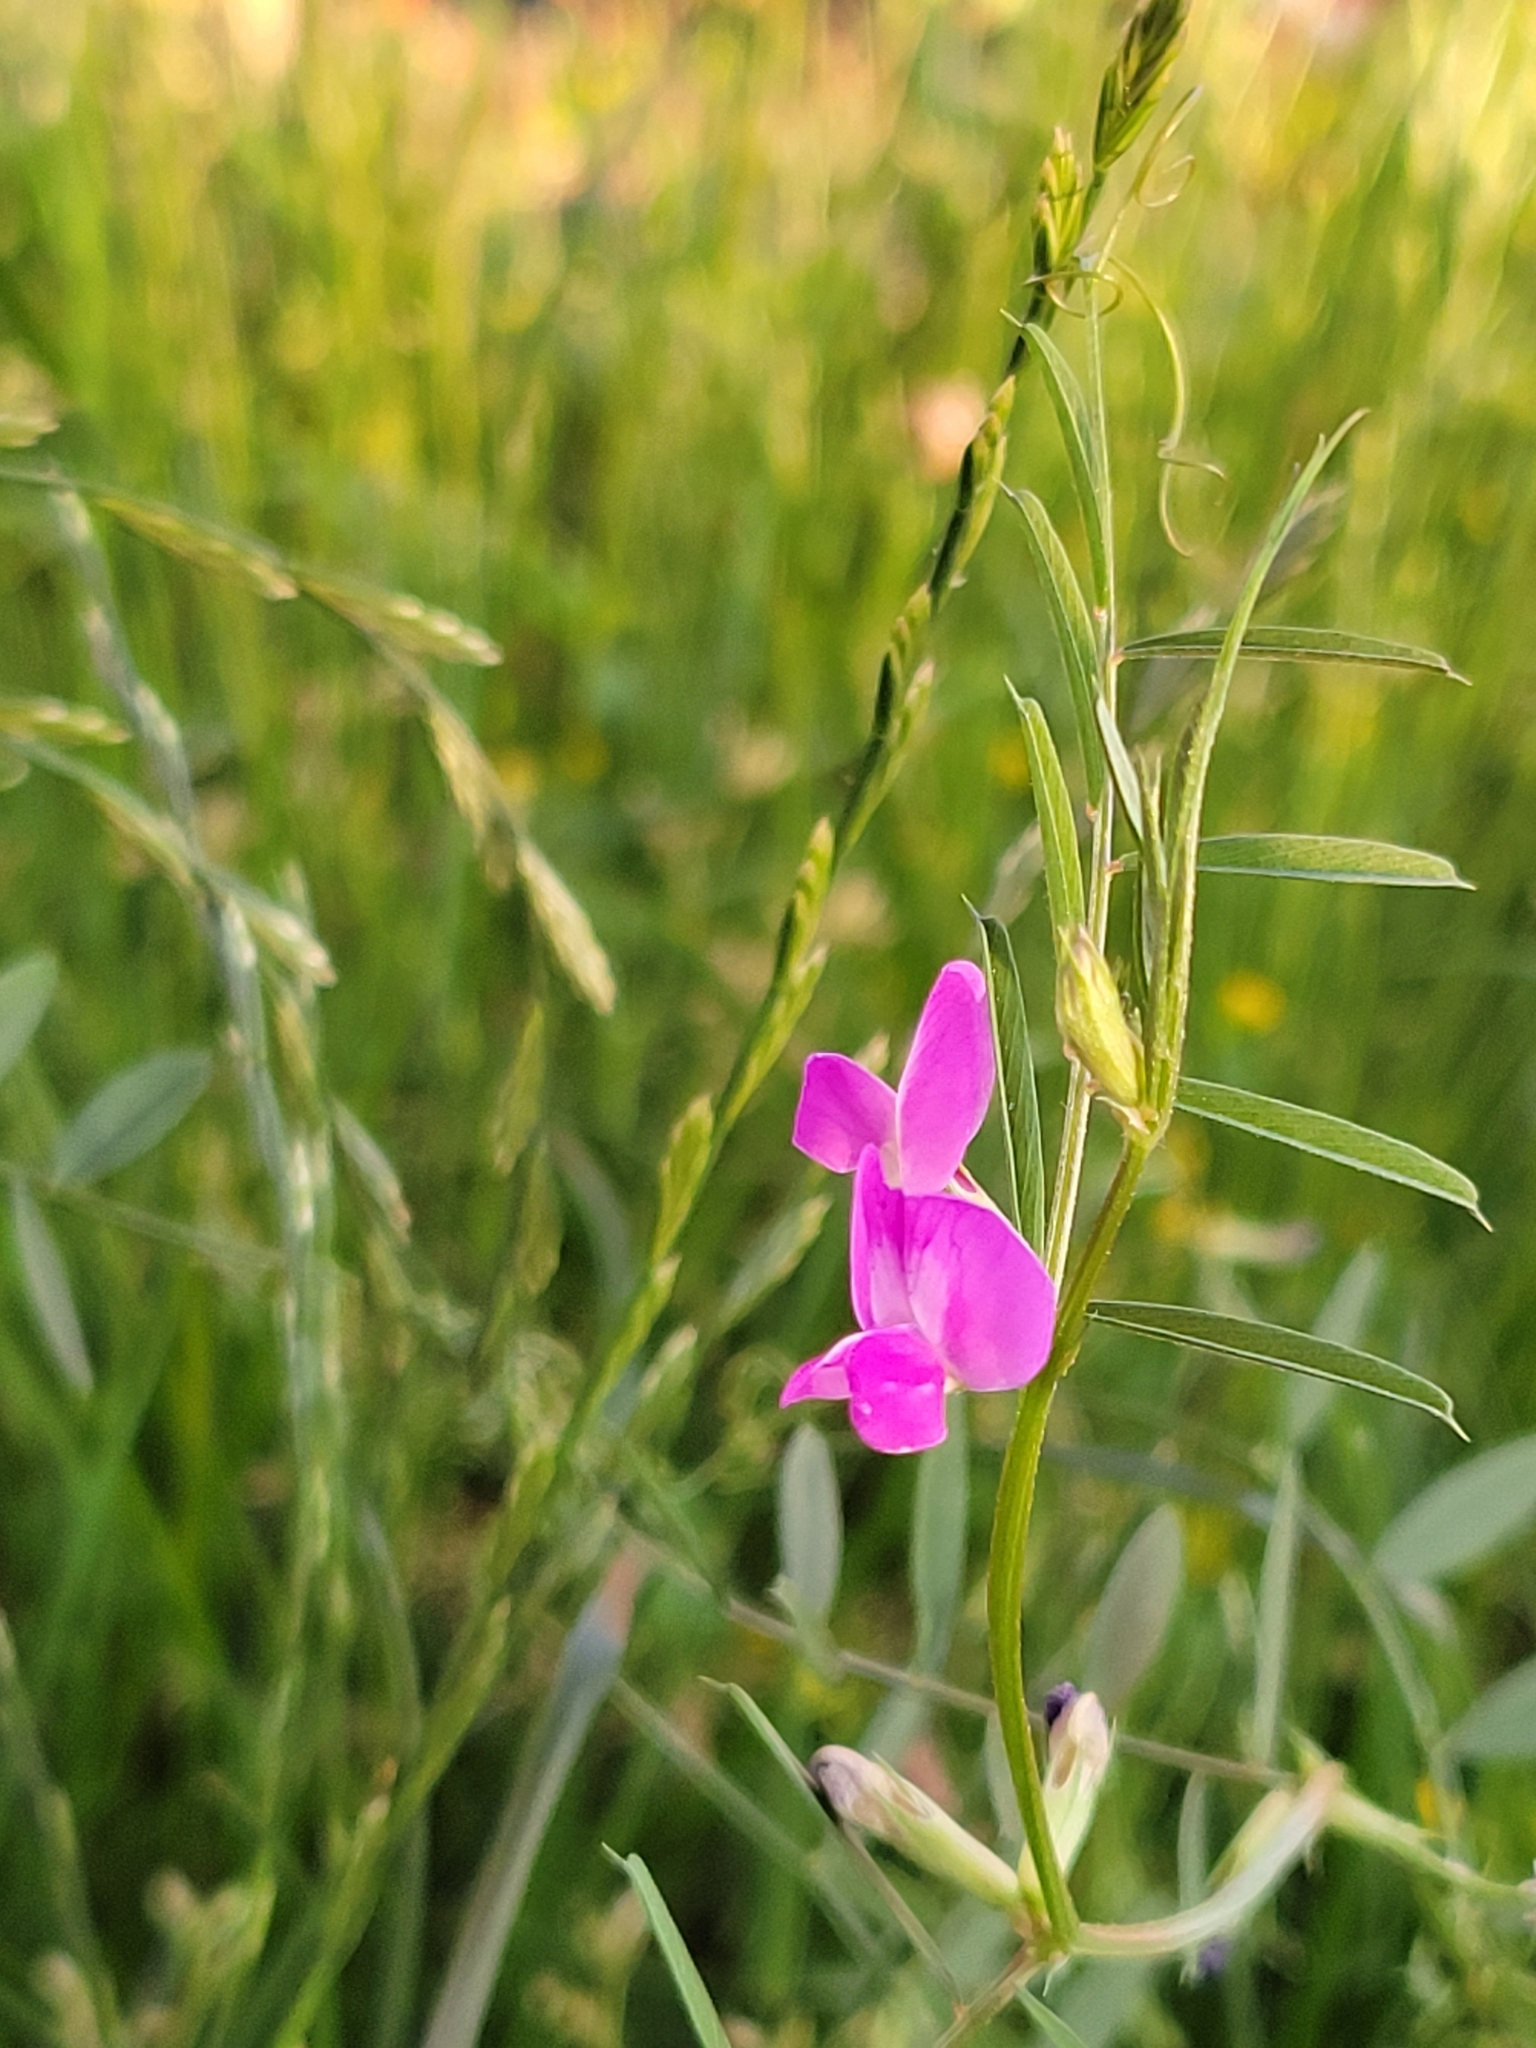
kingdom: Plantae
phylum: Tracheophyta
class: Magnoliopsida
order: Fabales
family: Fabaceae
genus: Vicia
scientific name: Vicia sativa
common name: Garden vetch
